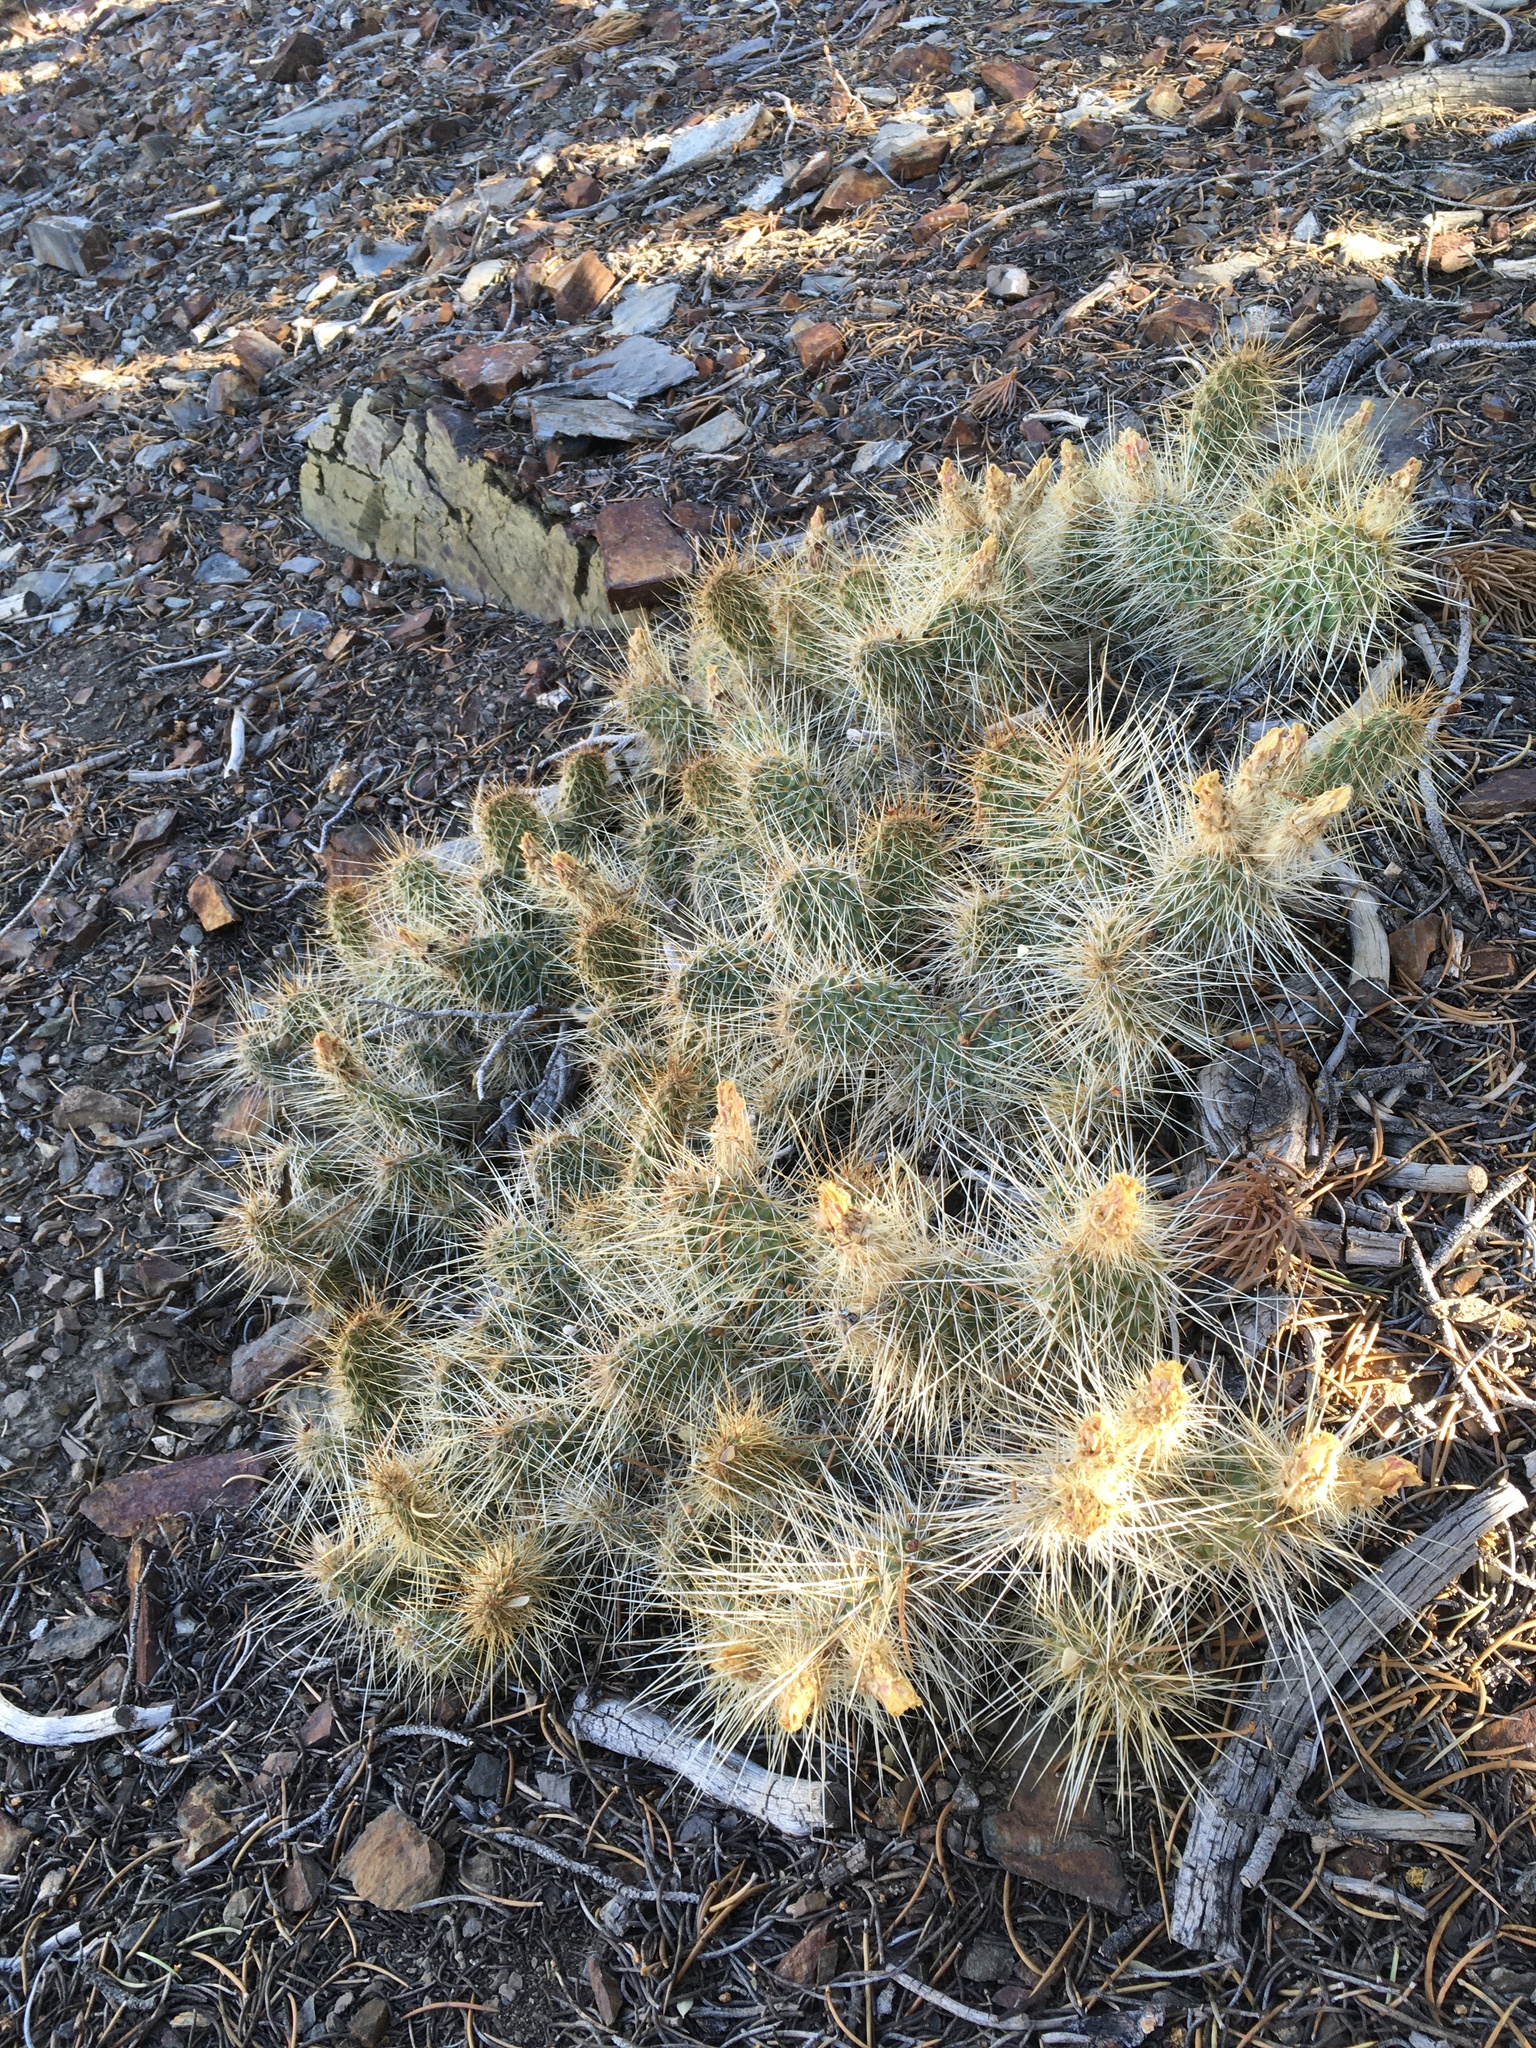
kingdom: Plantae
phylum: Tracheophyta
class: Magnoliopsida
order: Caryophyllales
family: Cactaceae
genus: Opuntia
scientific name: Opuntia polyacantha
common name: Plains prickly-pear
